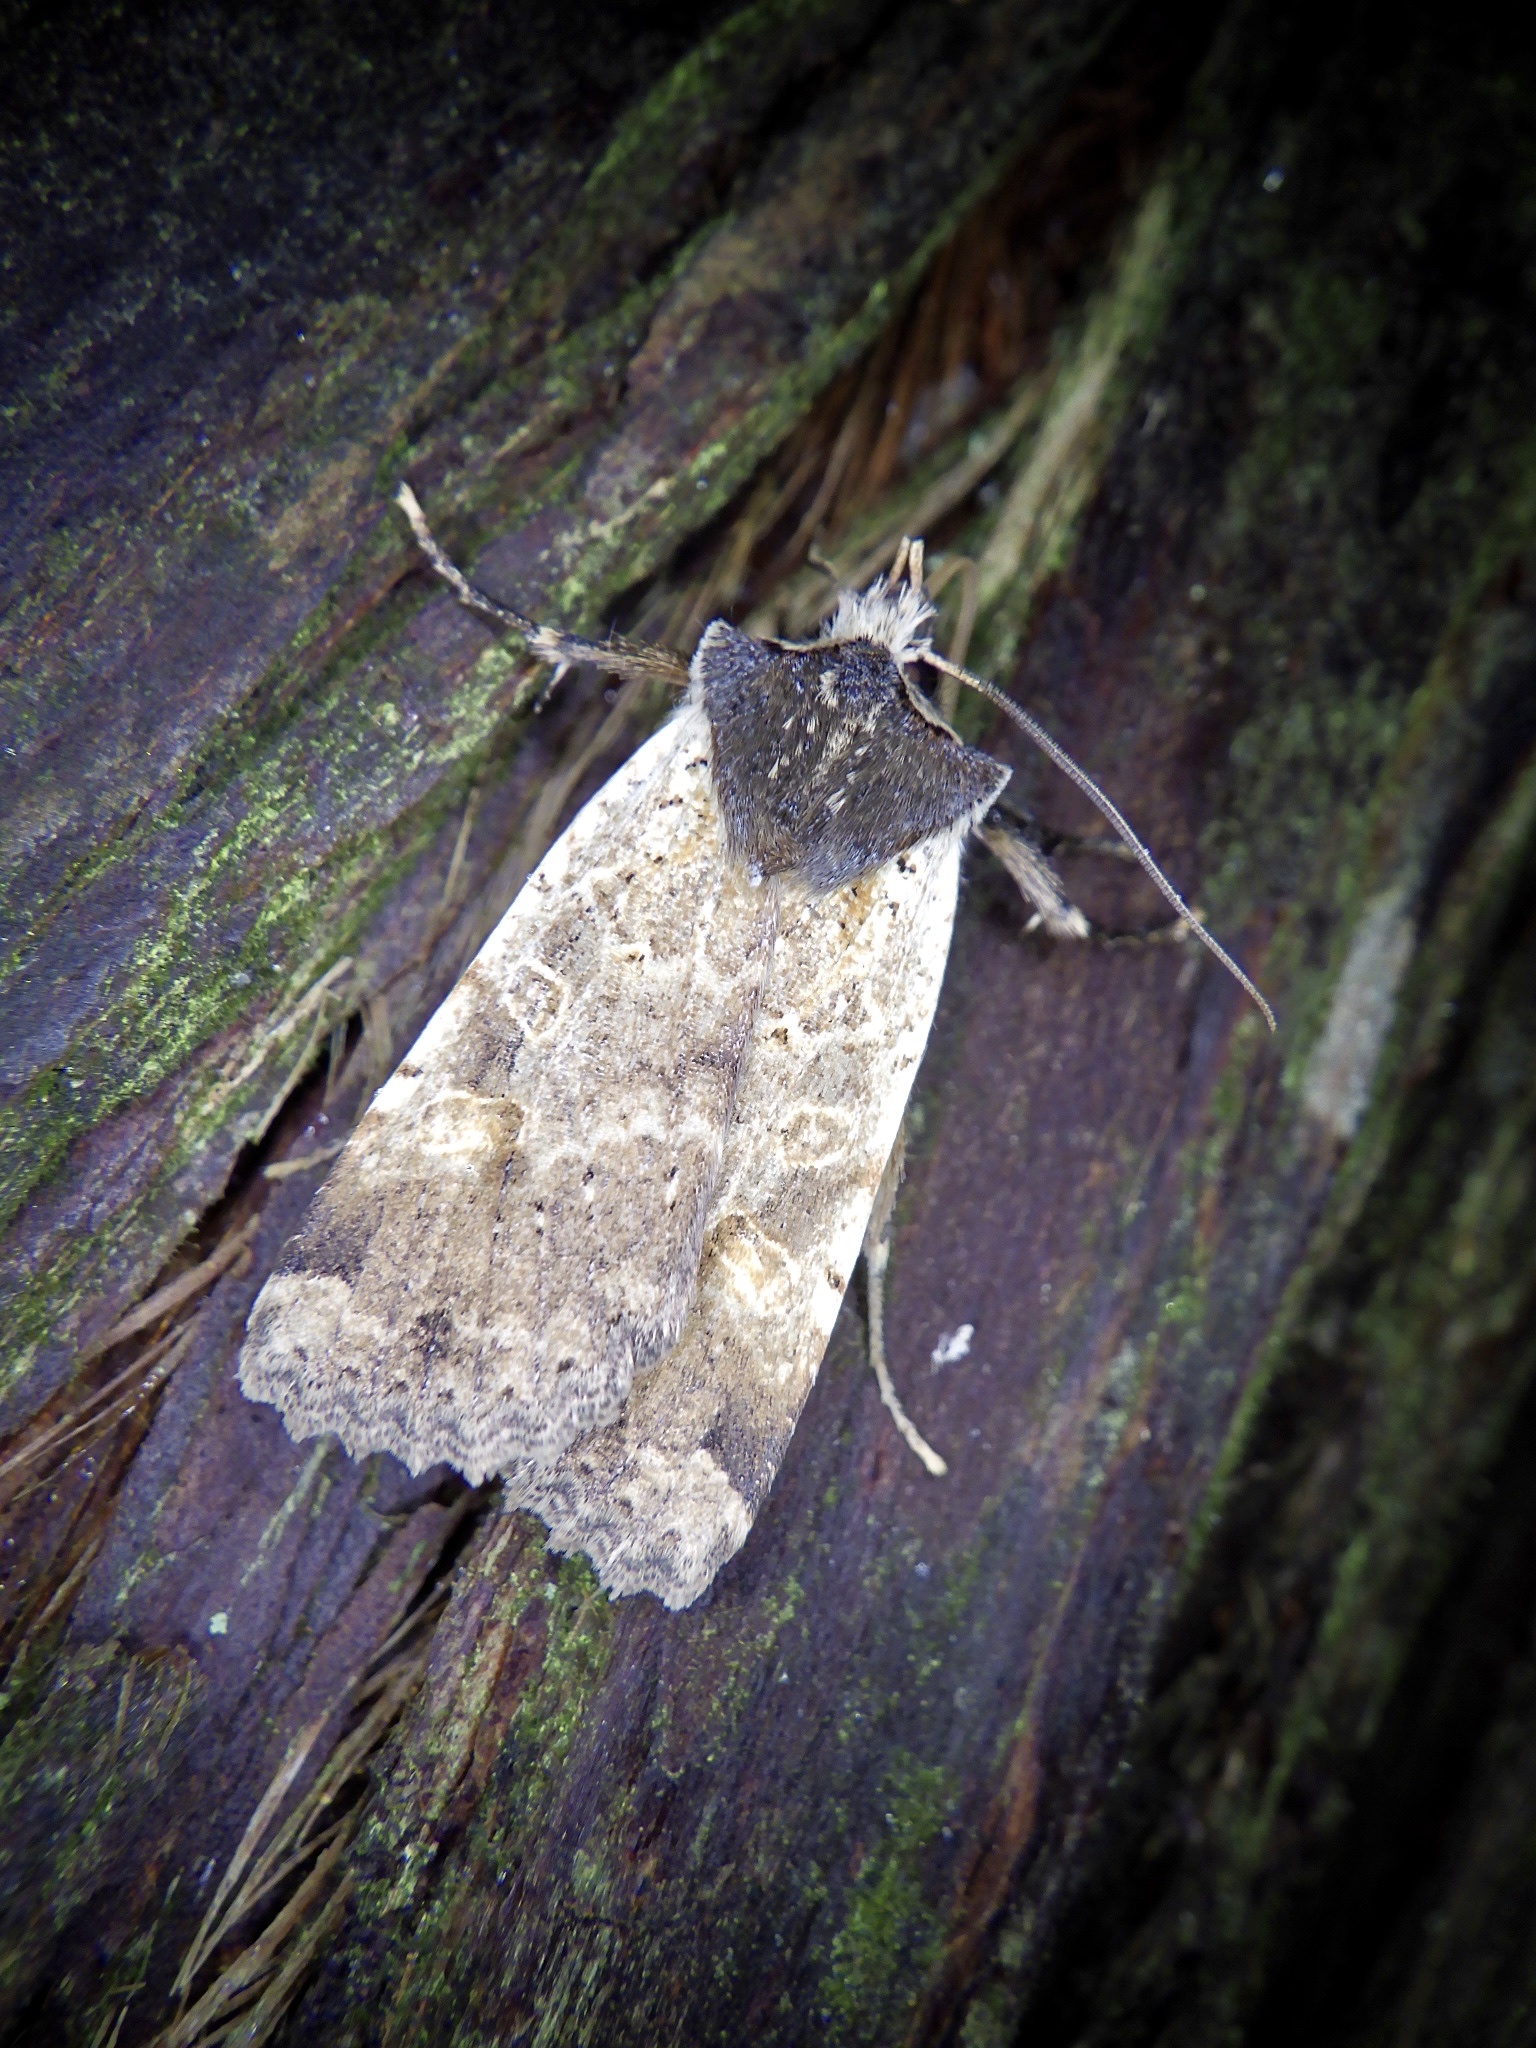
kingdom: Animalia
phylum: Arthropoda
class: Insecta
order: Lepidoptera
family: Noctuidae
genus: Rhynchaglaea
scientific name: Rhynchaglaea scitula
